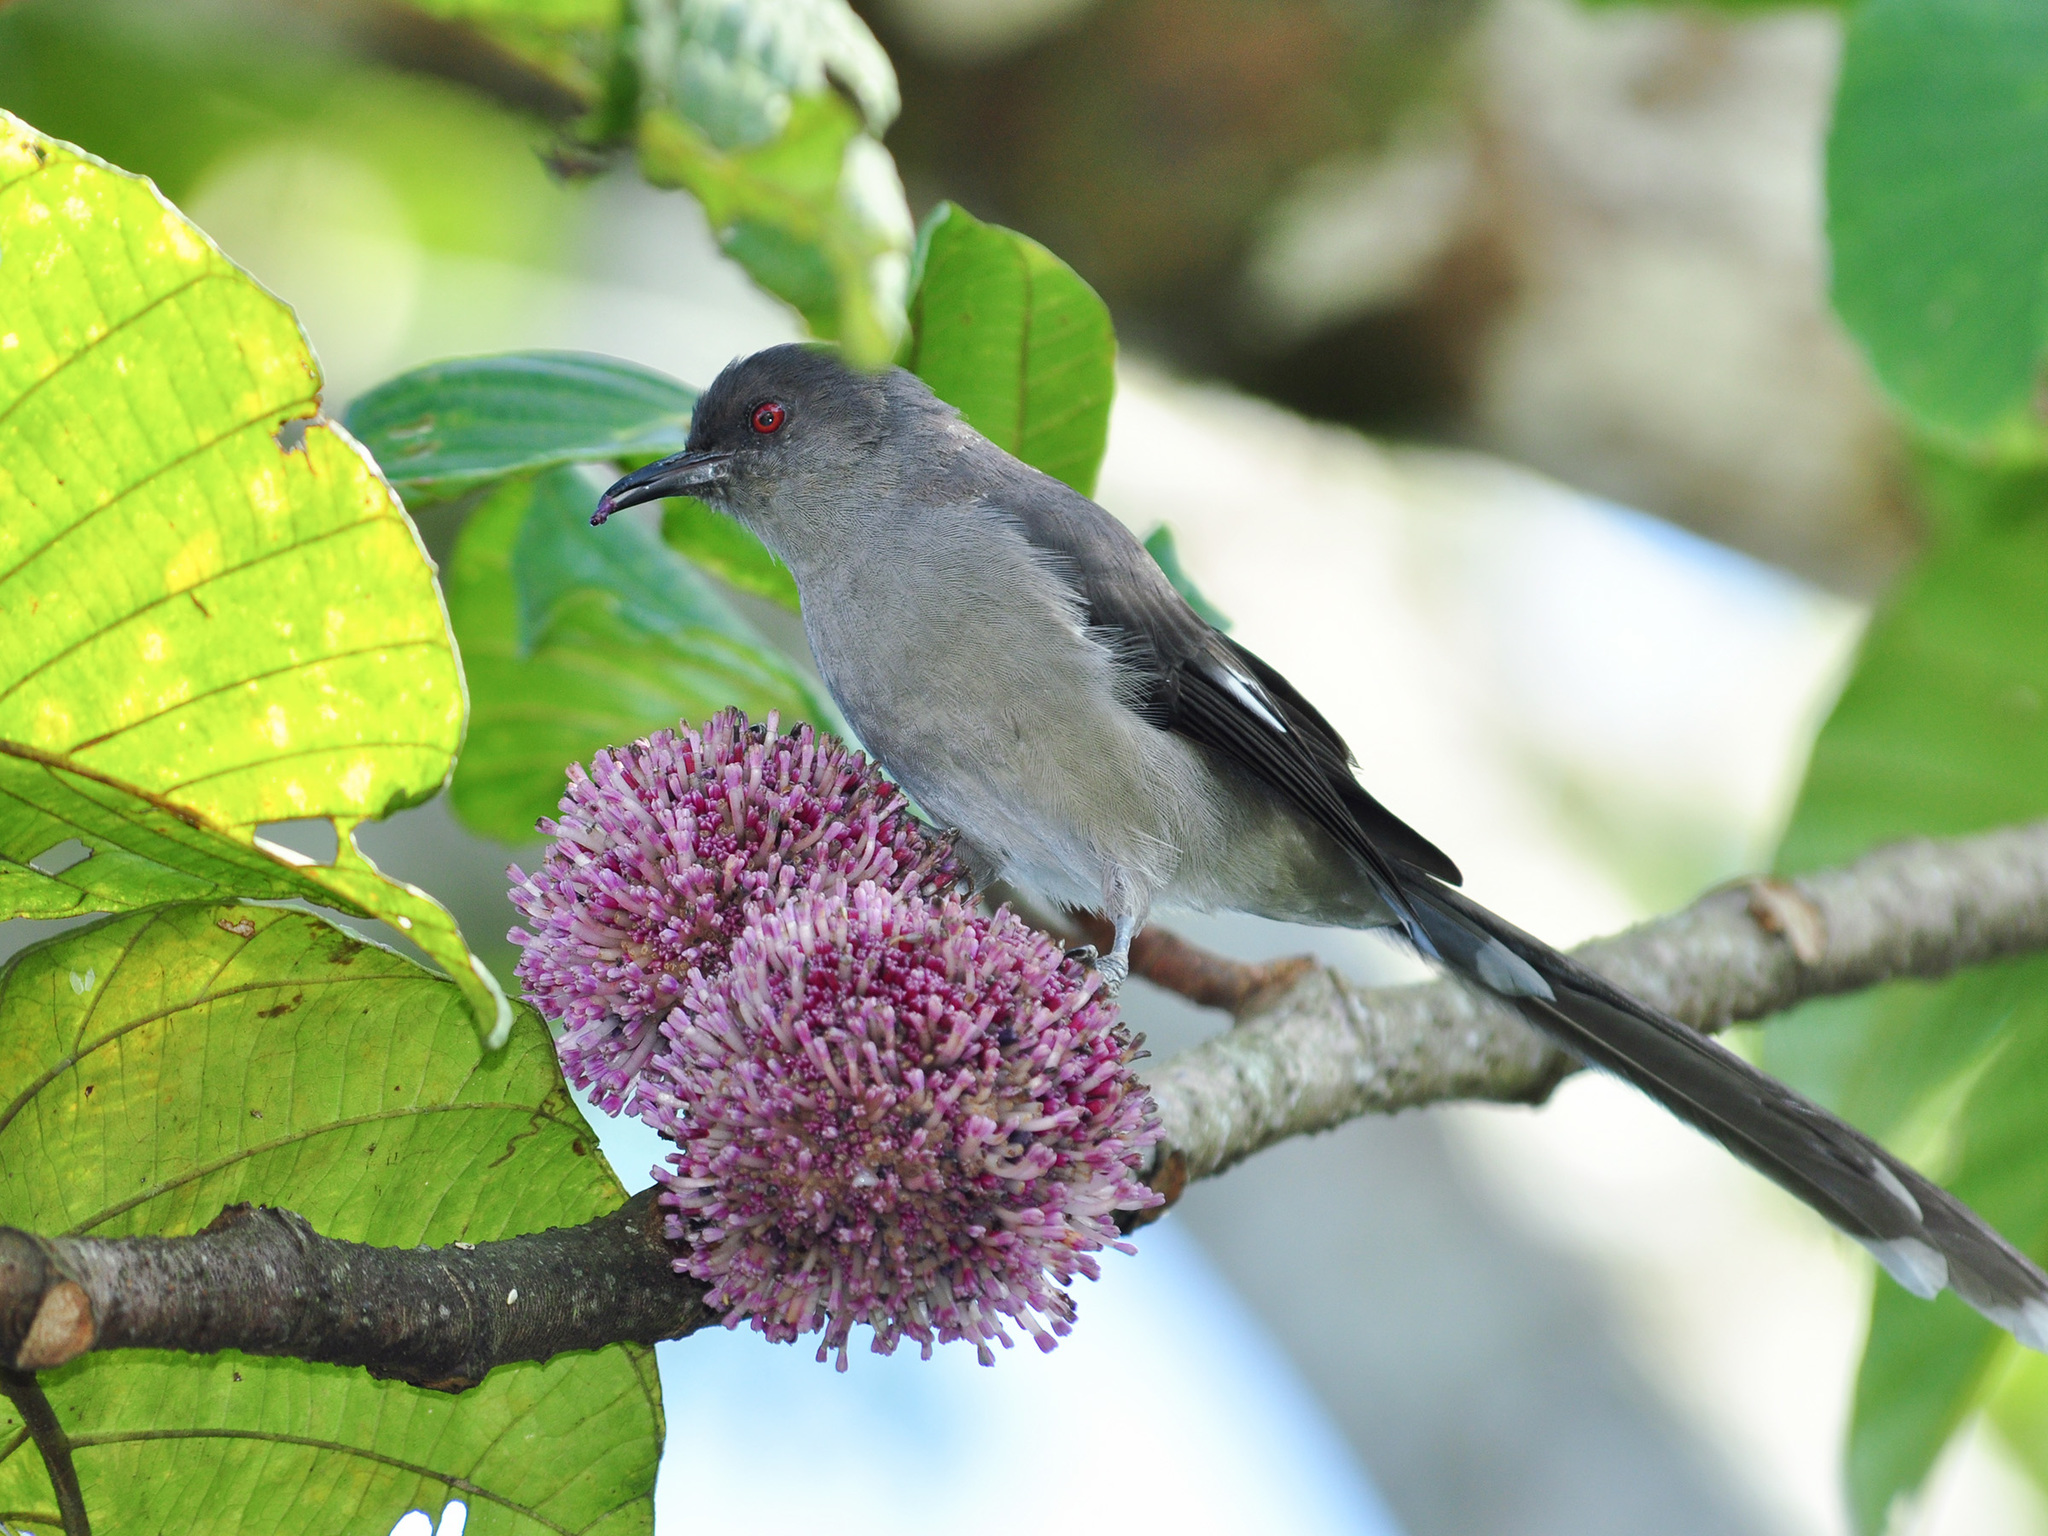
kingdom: Animalia
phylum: Chordata
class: Aves
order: Passeriformes
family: Leiothrichidae
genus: Heterophasia
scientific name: Heterophasia picaoides
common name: Long-tailed sibia
